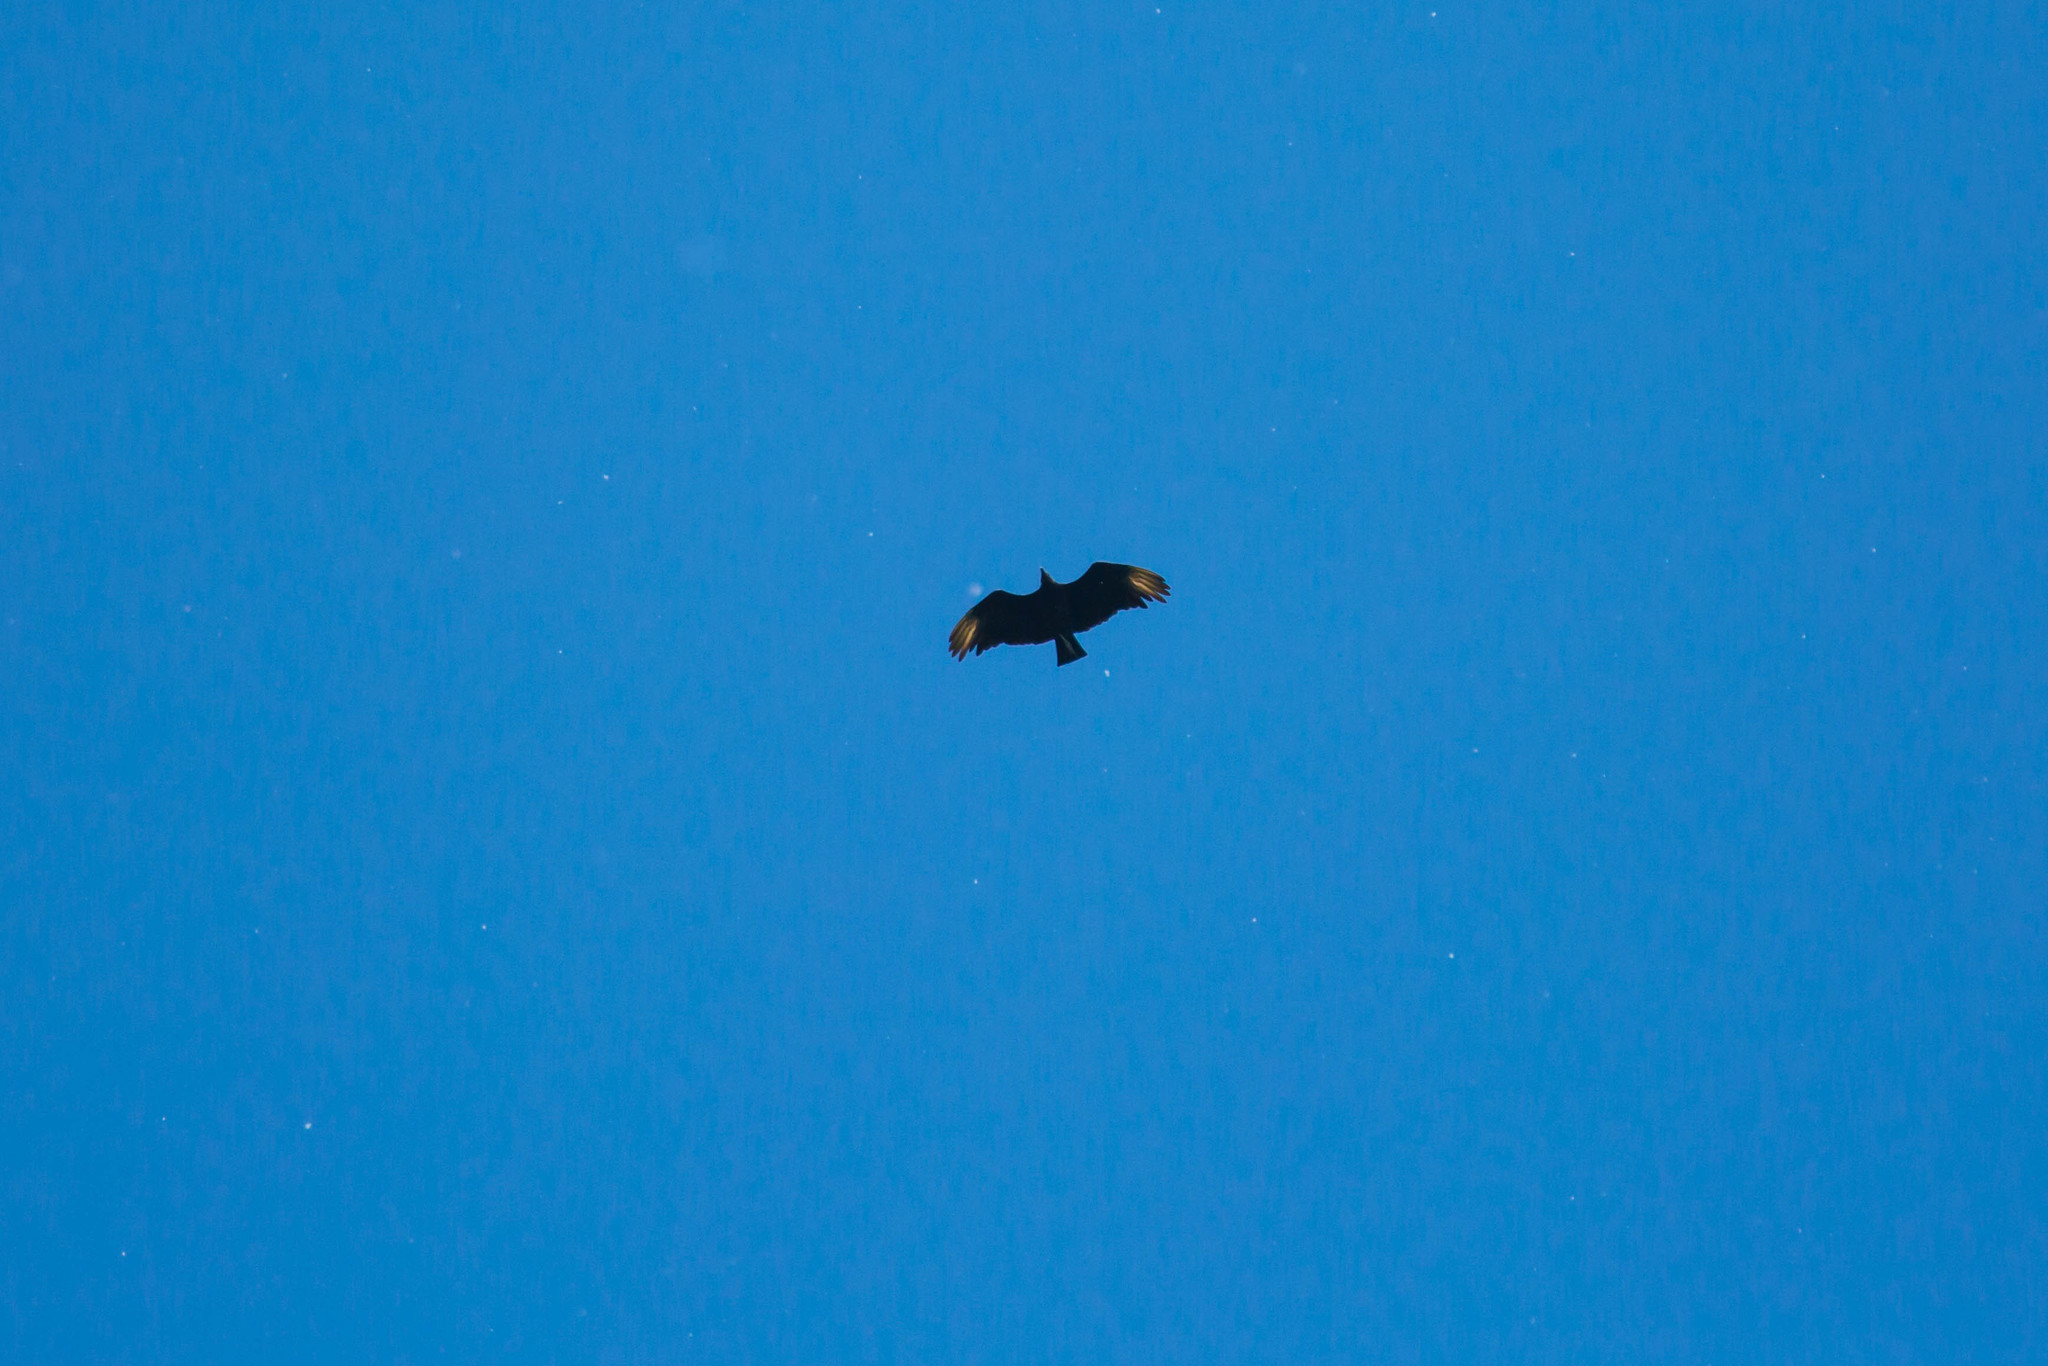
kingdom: Animalia
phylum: Chordata
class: Aves
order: Accipitriformes
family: Cathartidae
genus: Coragyps
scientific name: Coragyps atratus
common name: Black vulture
